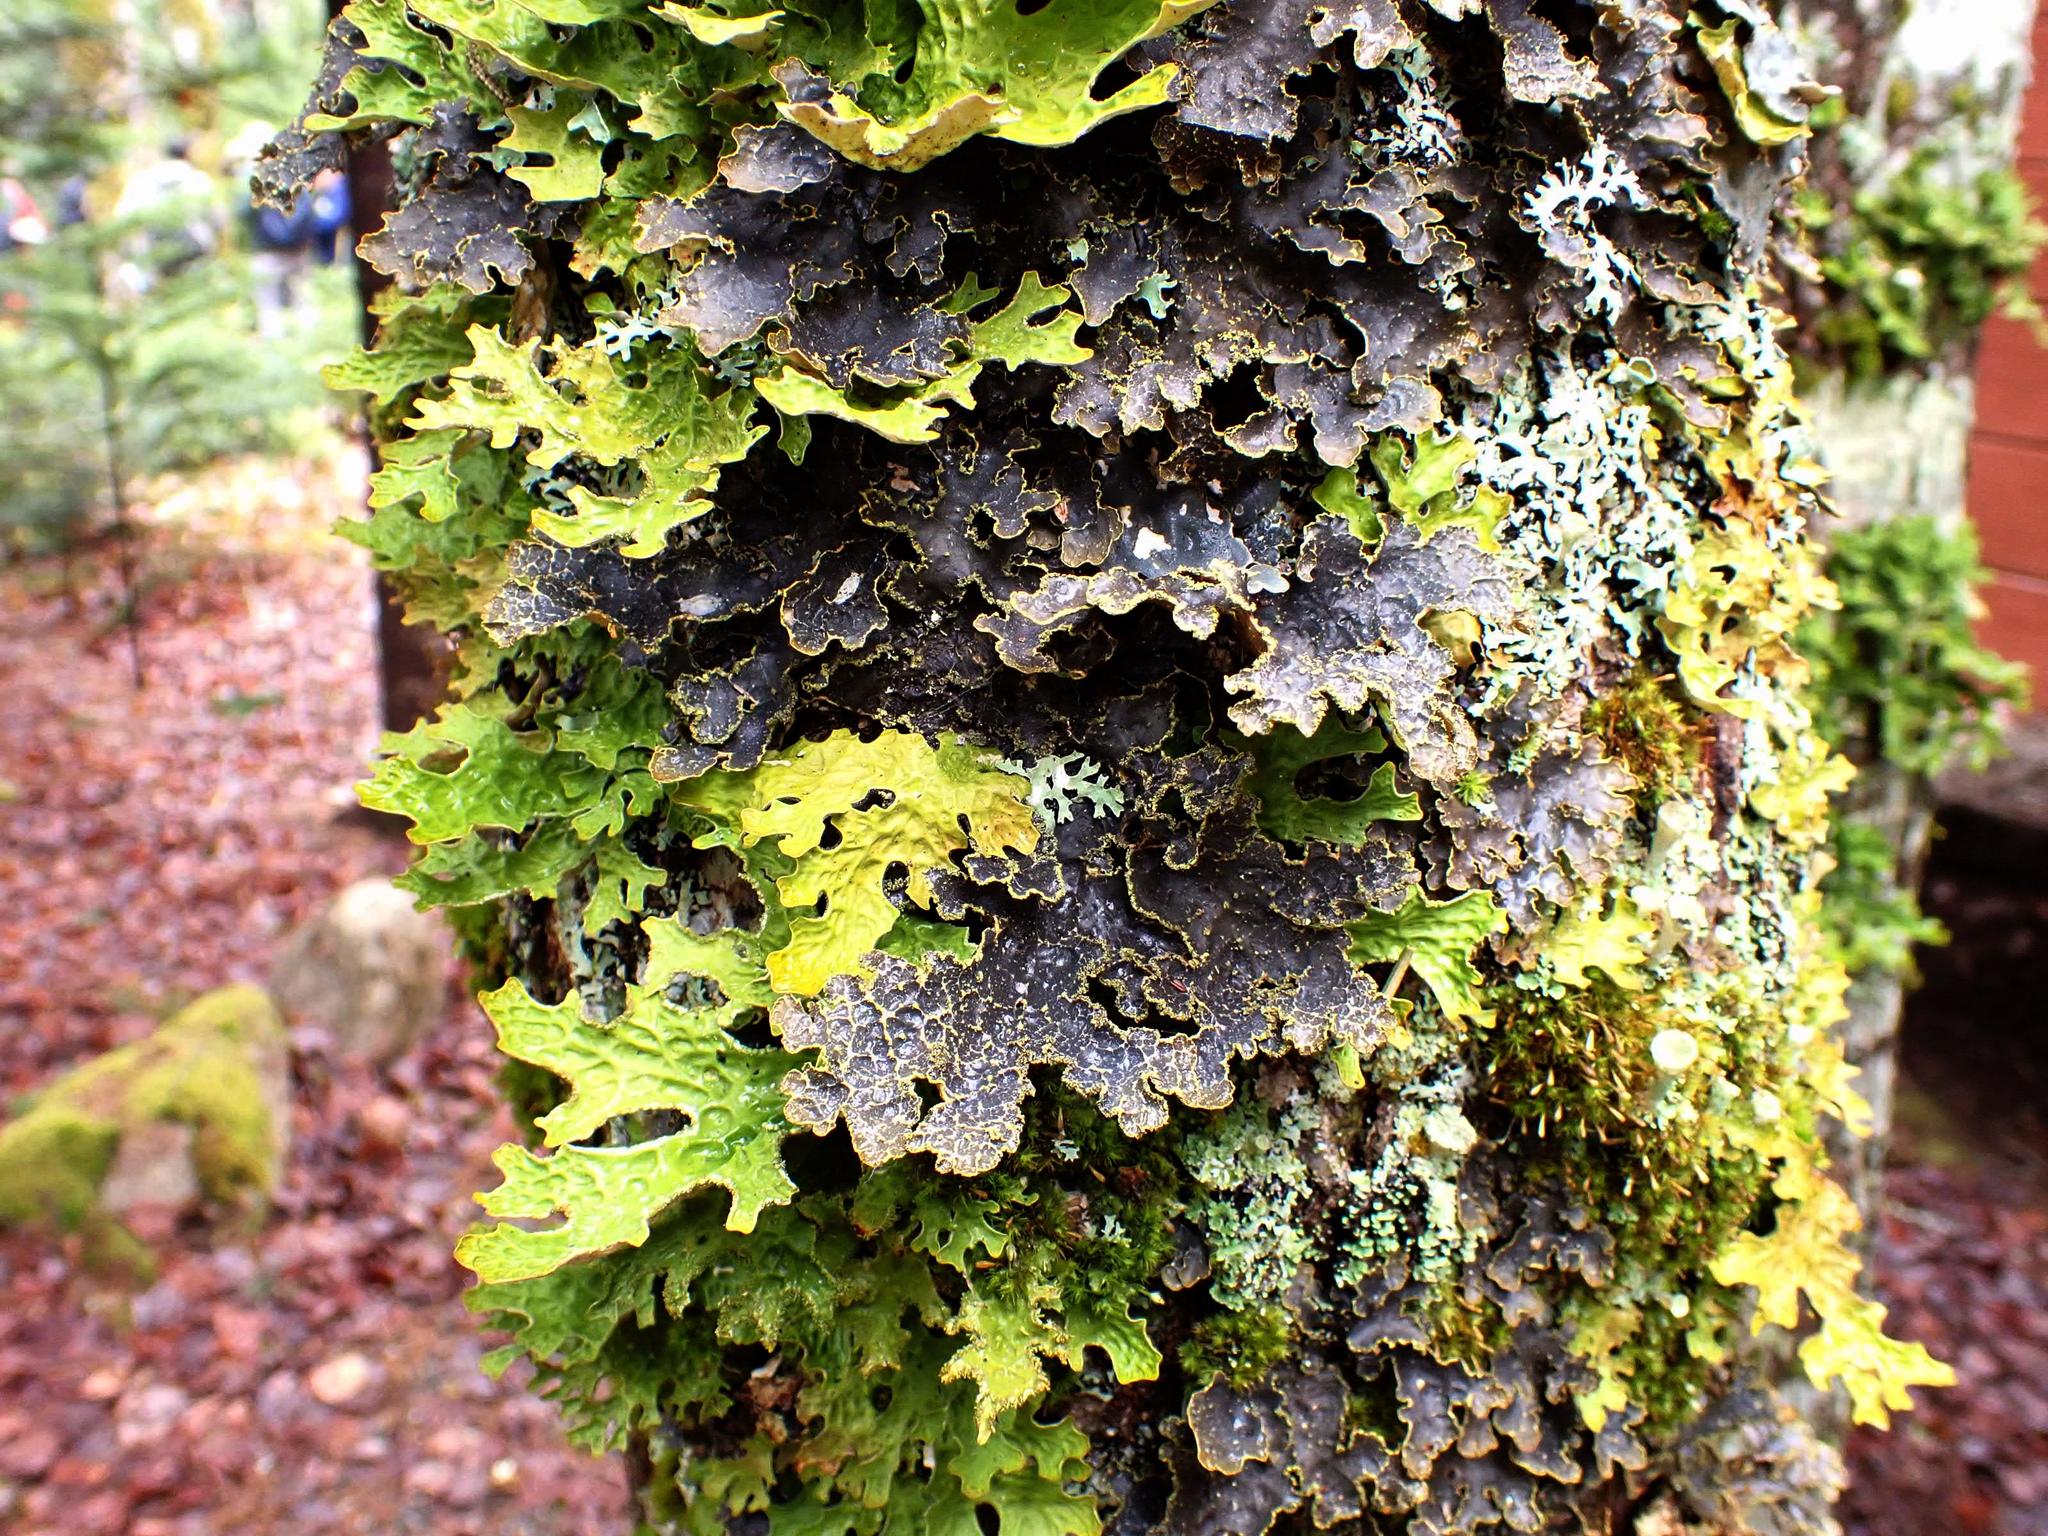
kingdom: Fungi
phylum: Ascomycota
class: Lecanoromycetes
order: Peltigerales
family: Lobariaceae
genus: Pseudocyphellaria
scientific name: Pseudocyphellaria holarctica
